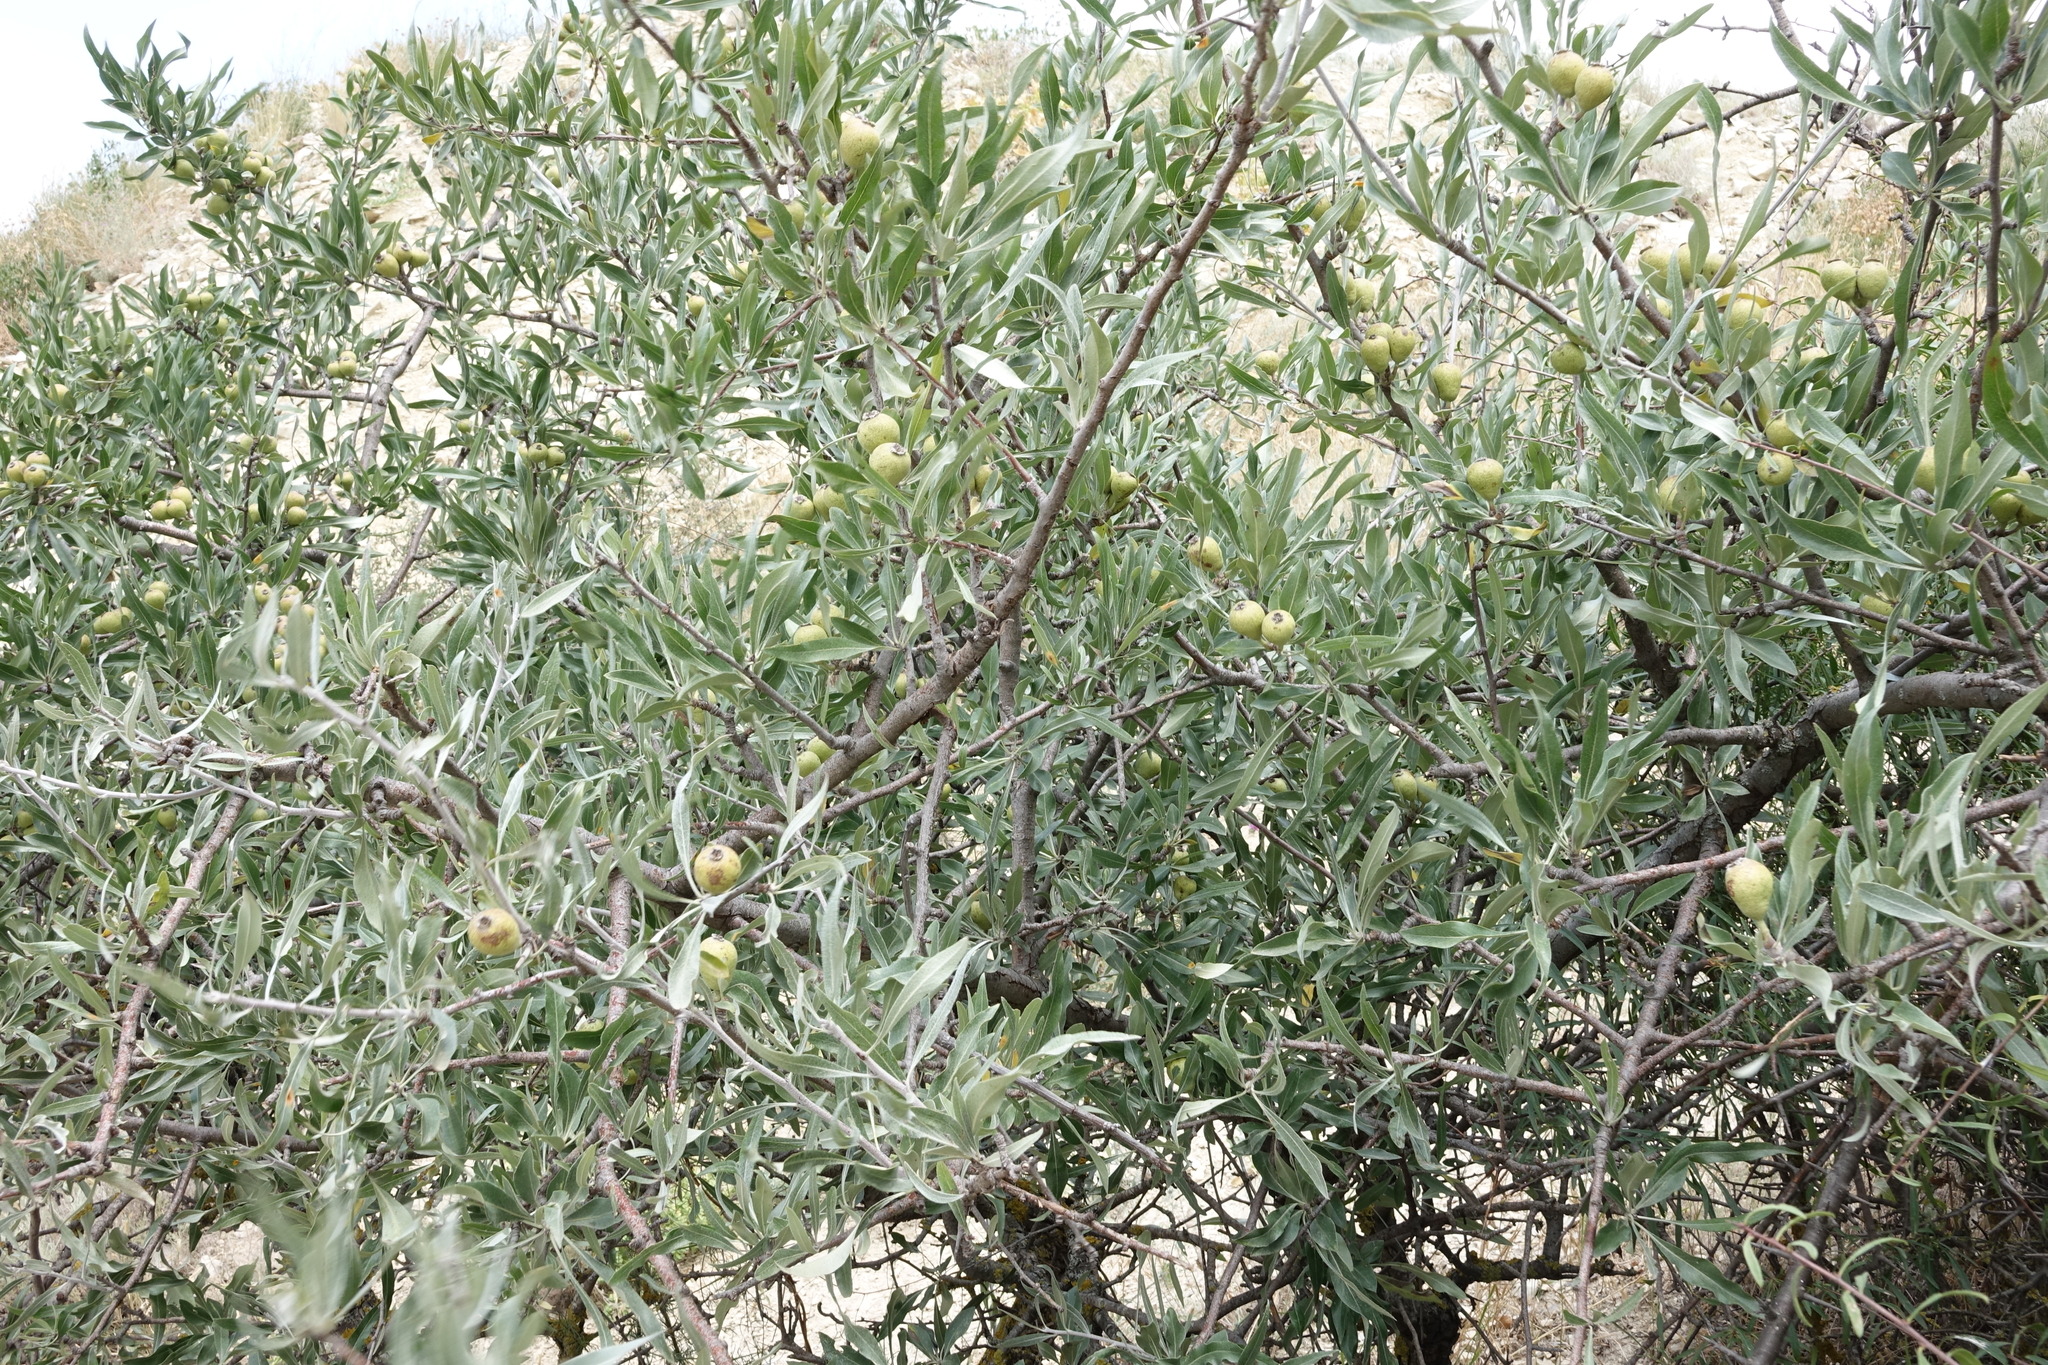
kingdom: Plantae
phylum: Tracheophyta
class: Magnoliopsida
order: Rosales
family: Rosaceae
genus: Pyrus
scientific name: Pyrus salicifolia
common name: Willow-leaved pear
